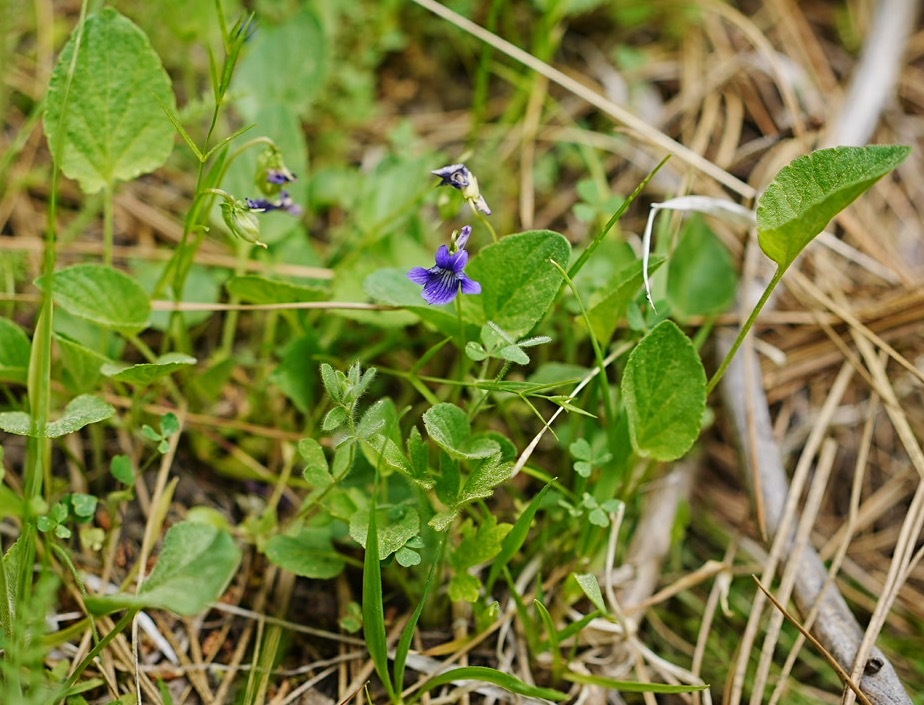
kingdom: Plantae
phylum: Tracheophyta
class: Magnoliopsida
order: Malpighiales
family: Violaceae
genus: Viola
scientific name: Viola adunca
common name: Sand violet
